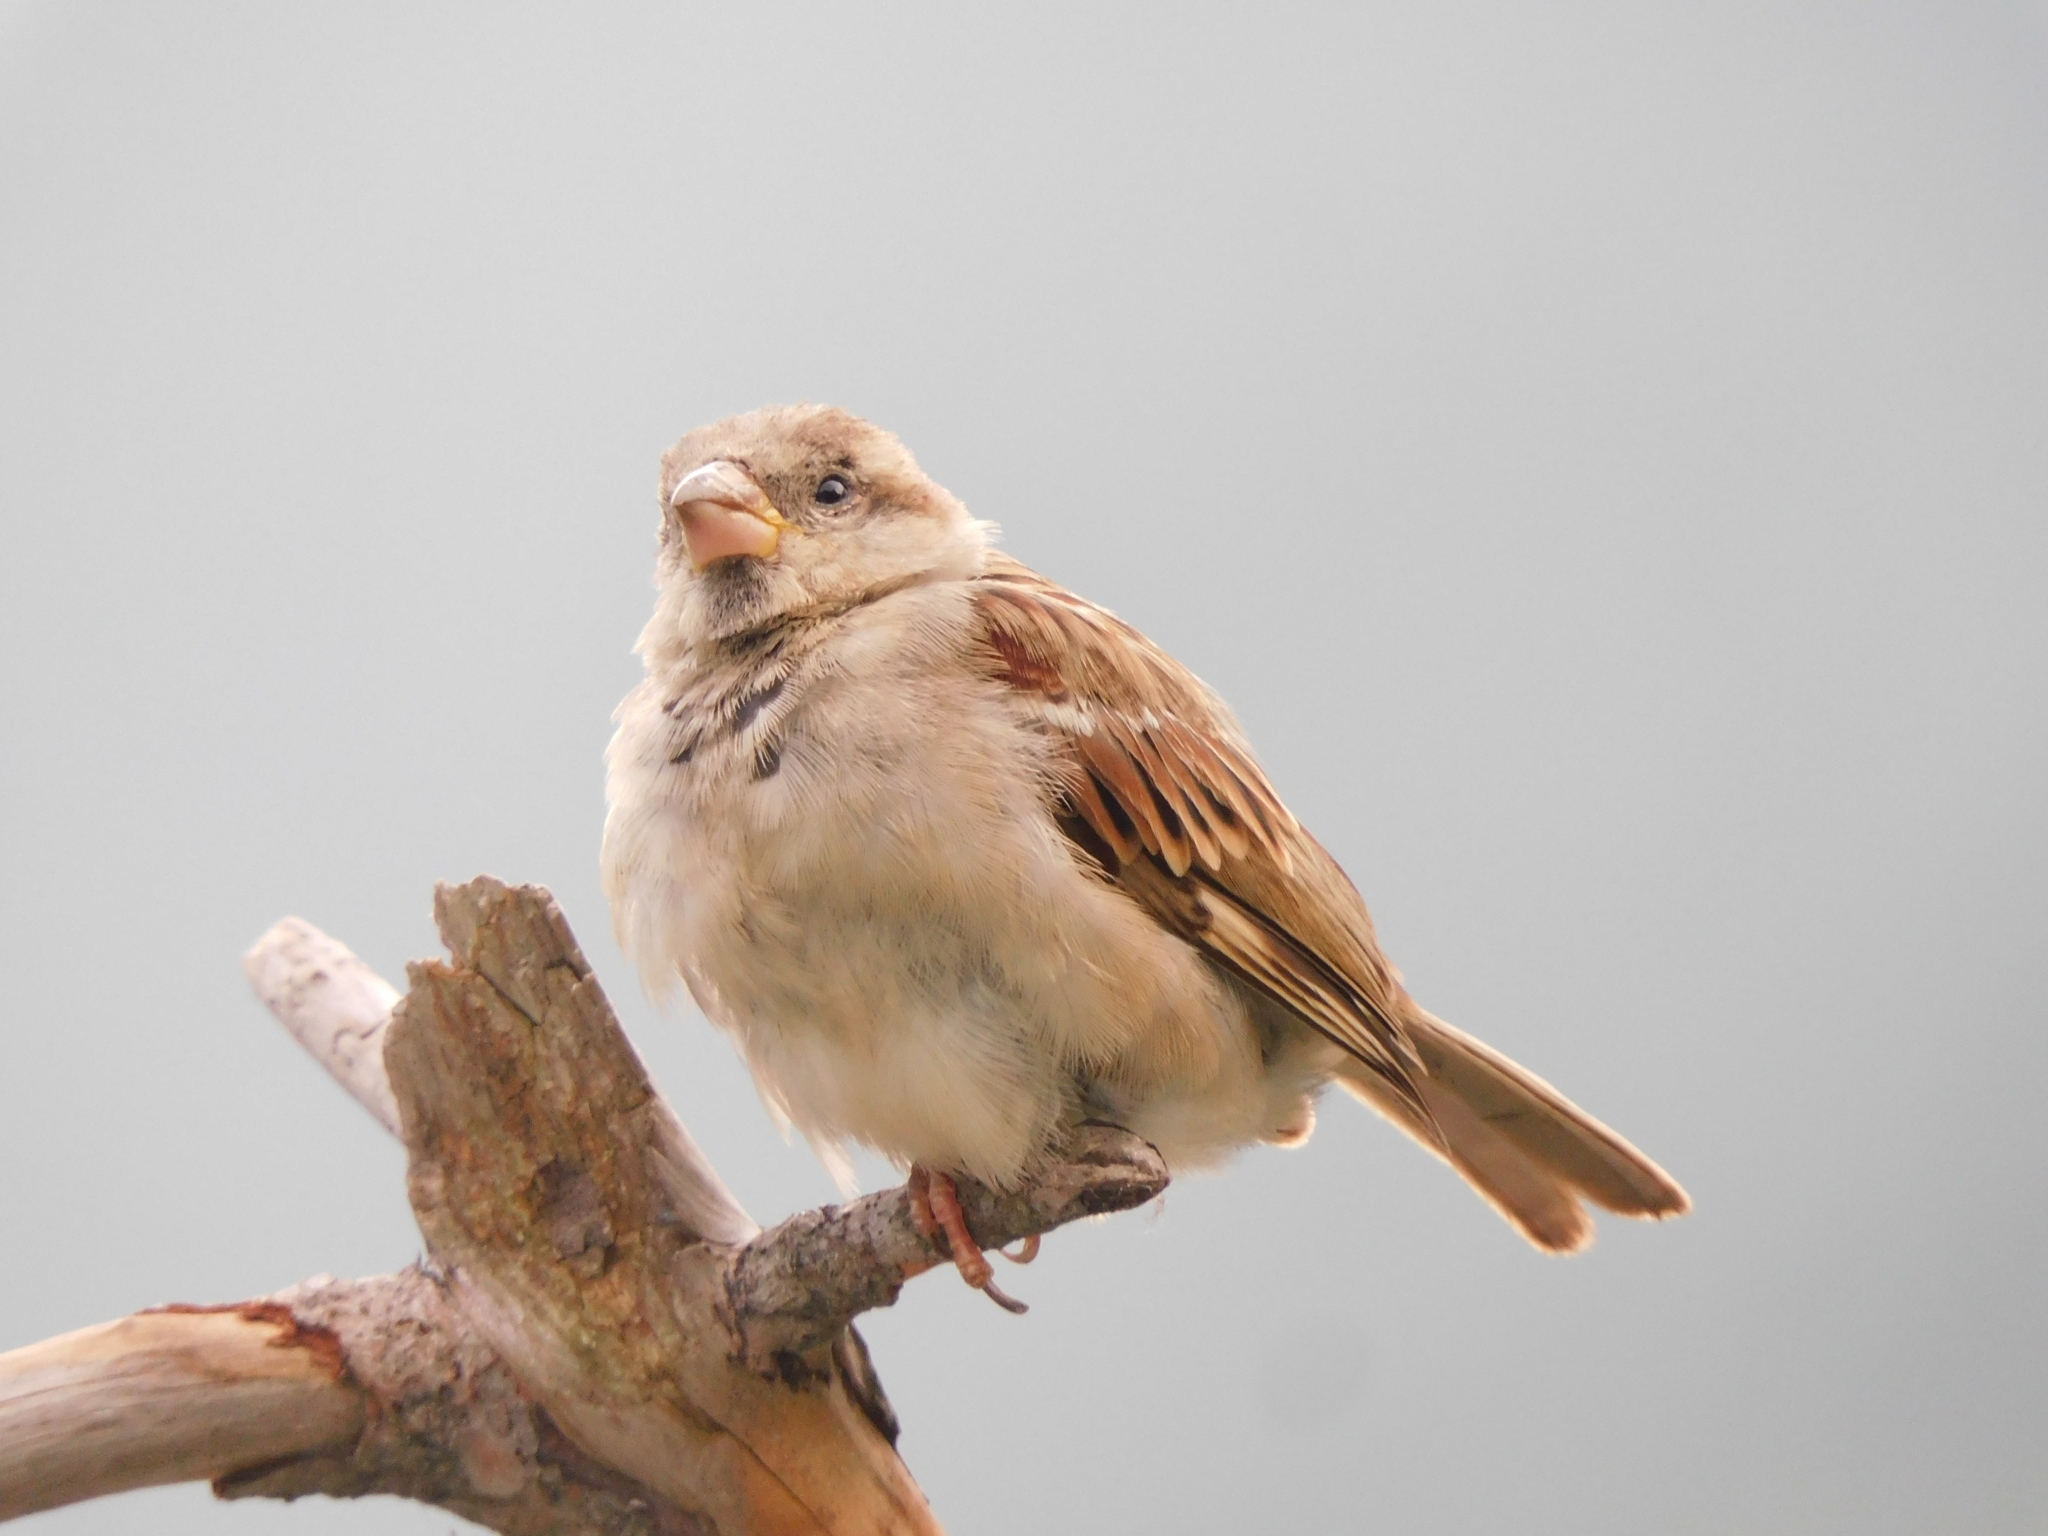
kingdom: Animalia
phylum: Chordata
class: Aves
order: Passeriformes
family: Passeridae
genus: Passer
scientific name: Passer domesticus
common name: House sparrow
